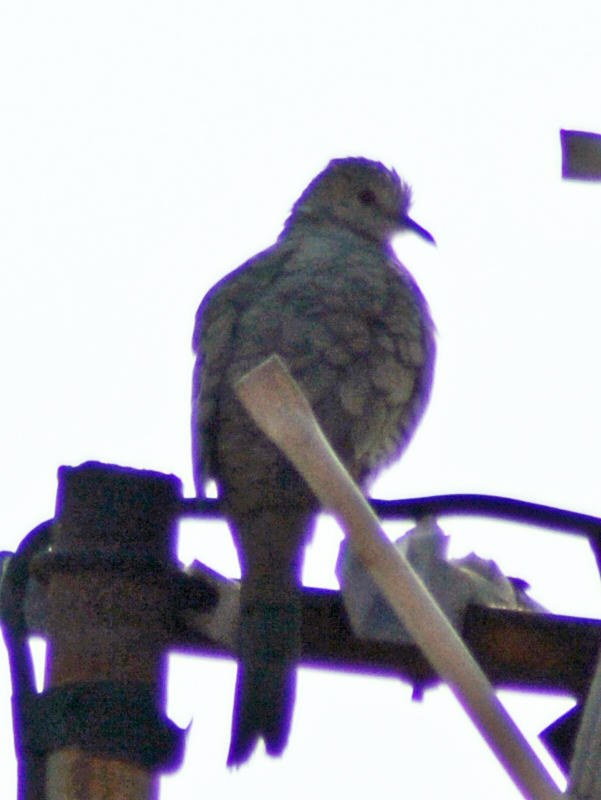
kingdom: Animalia
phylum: Chordata
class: Aves
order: Columbiformes
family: Columbidae
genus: Columbina
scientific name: Columbina inca
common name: Inca dove
